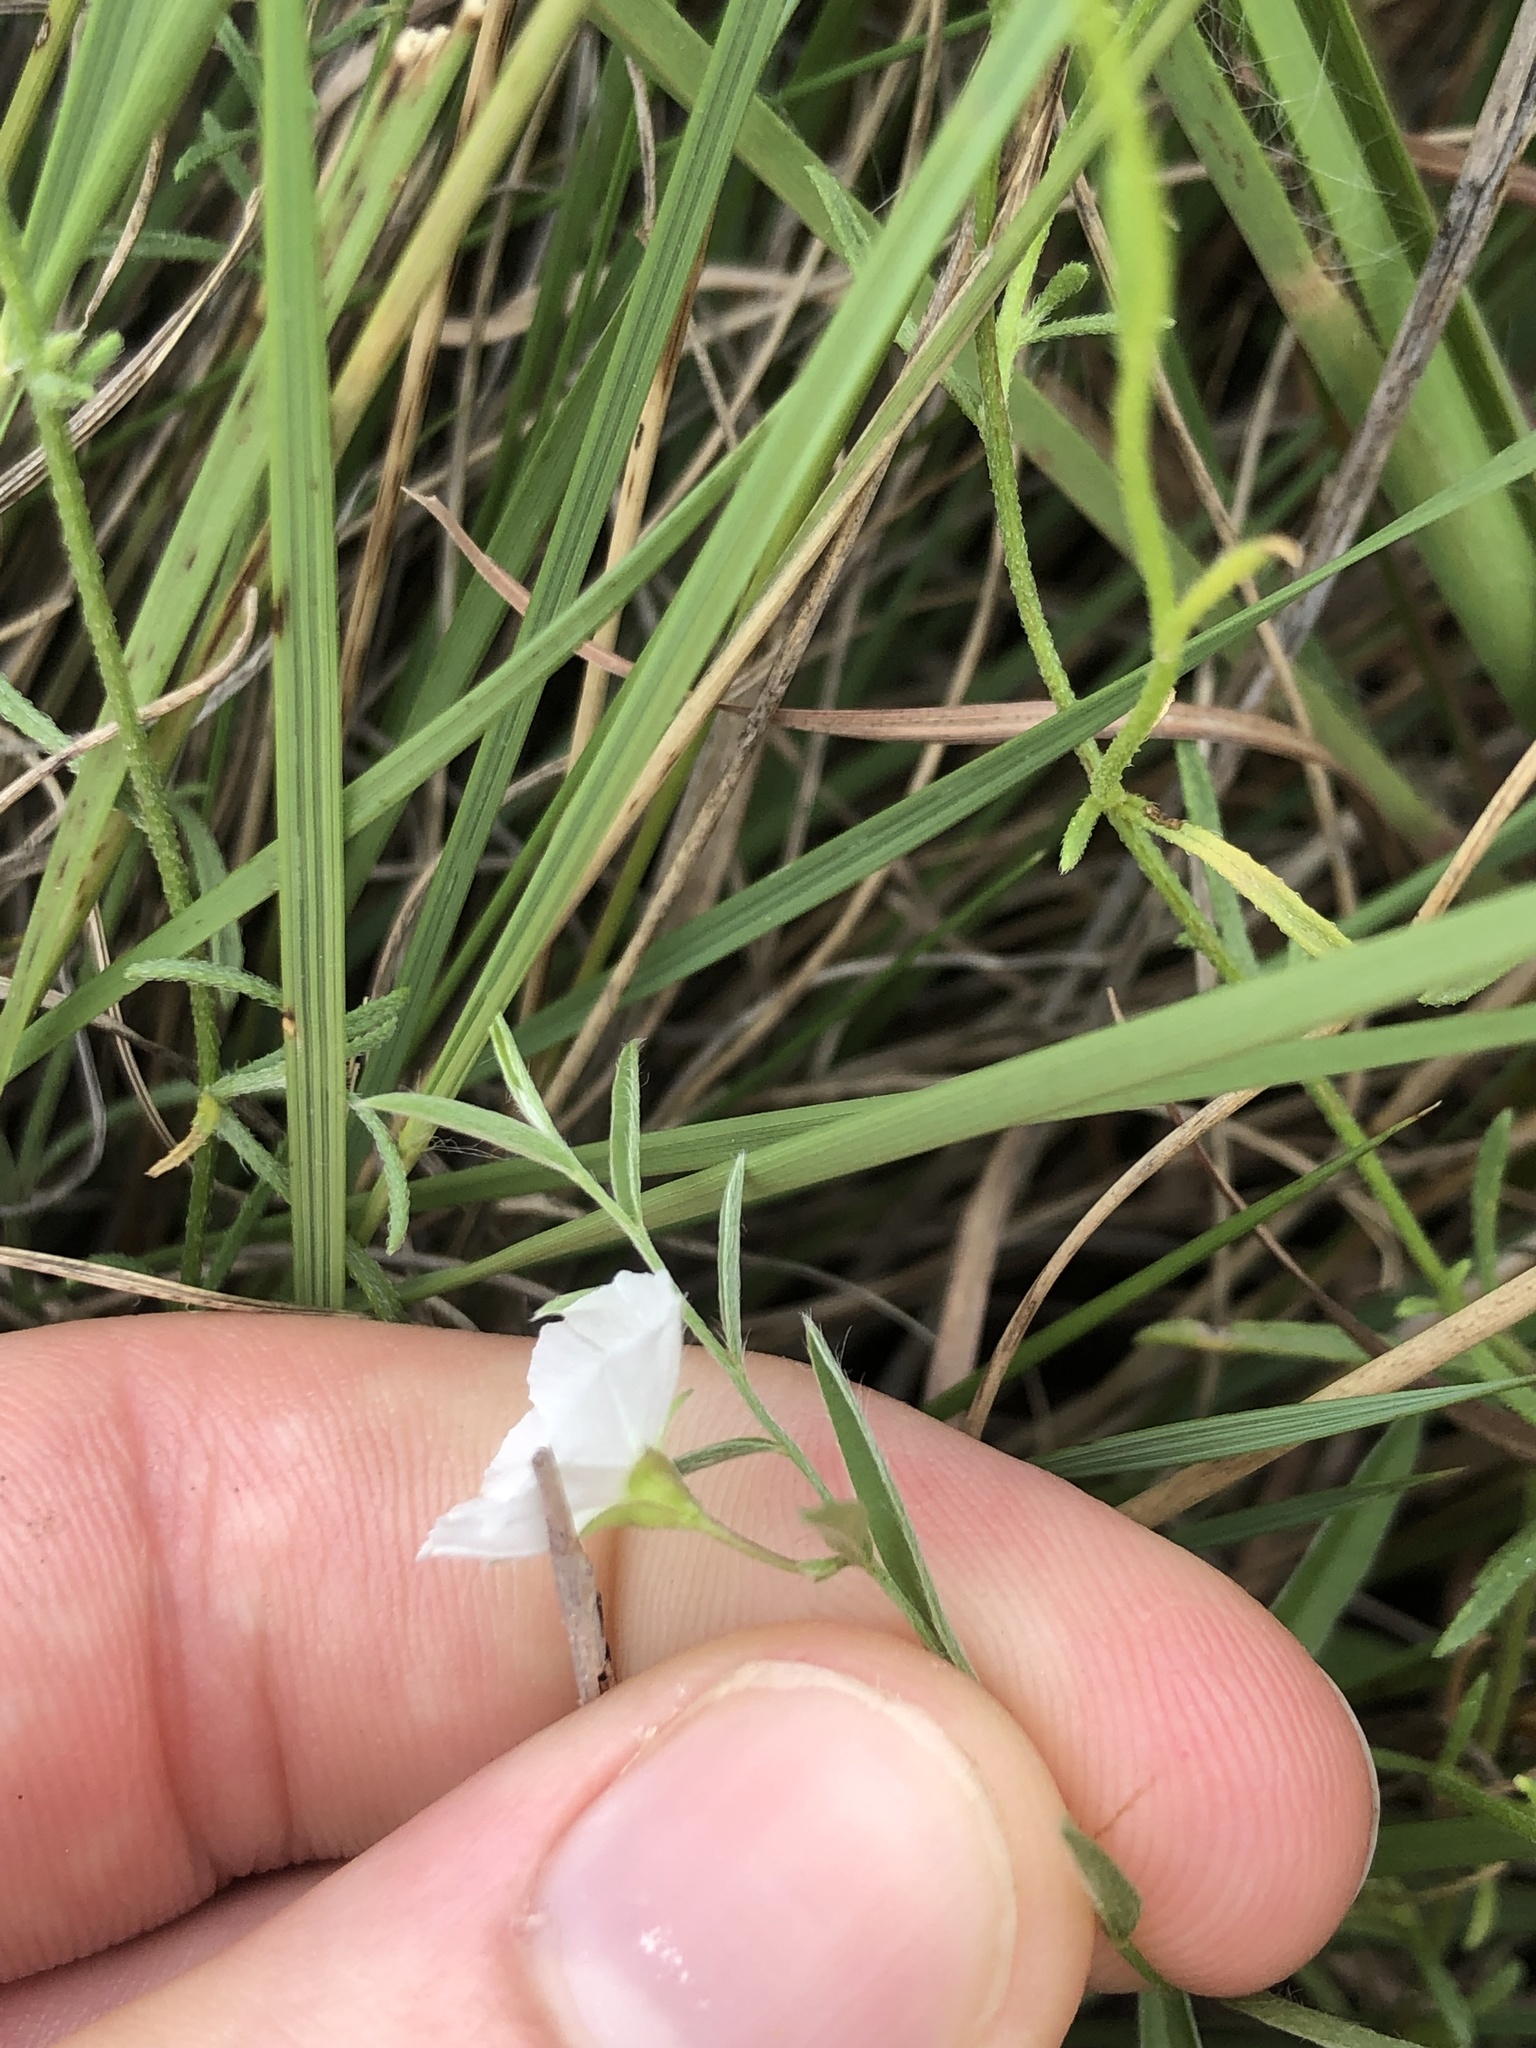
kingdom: Plantae
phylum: Tracheophyta
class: Magnoliopsida
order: Solanales
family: Convolvulaceae
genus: Evolvulus
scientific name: Evolvulus sericeus
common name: Blue dots
